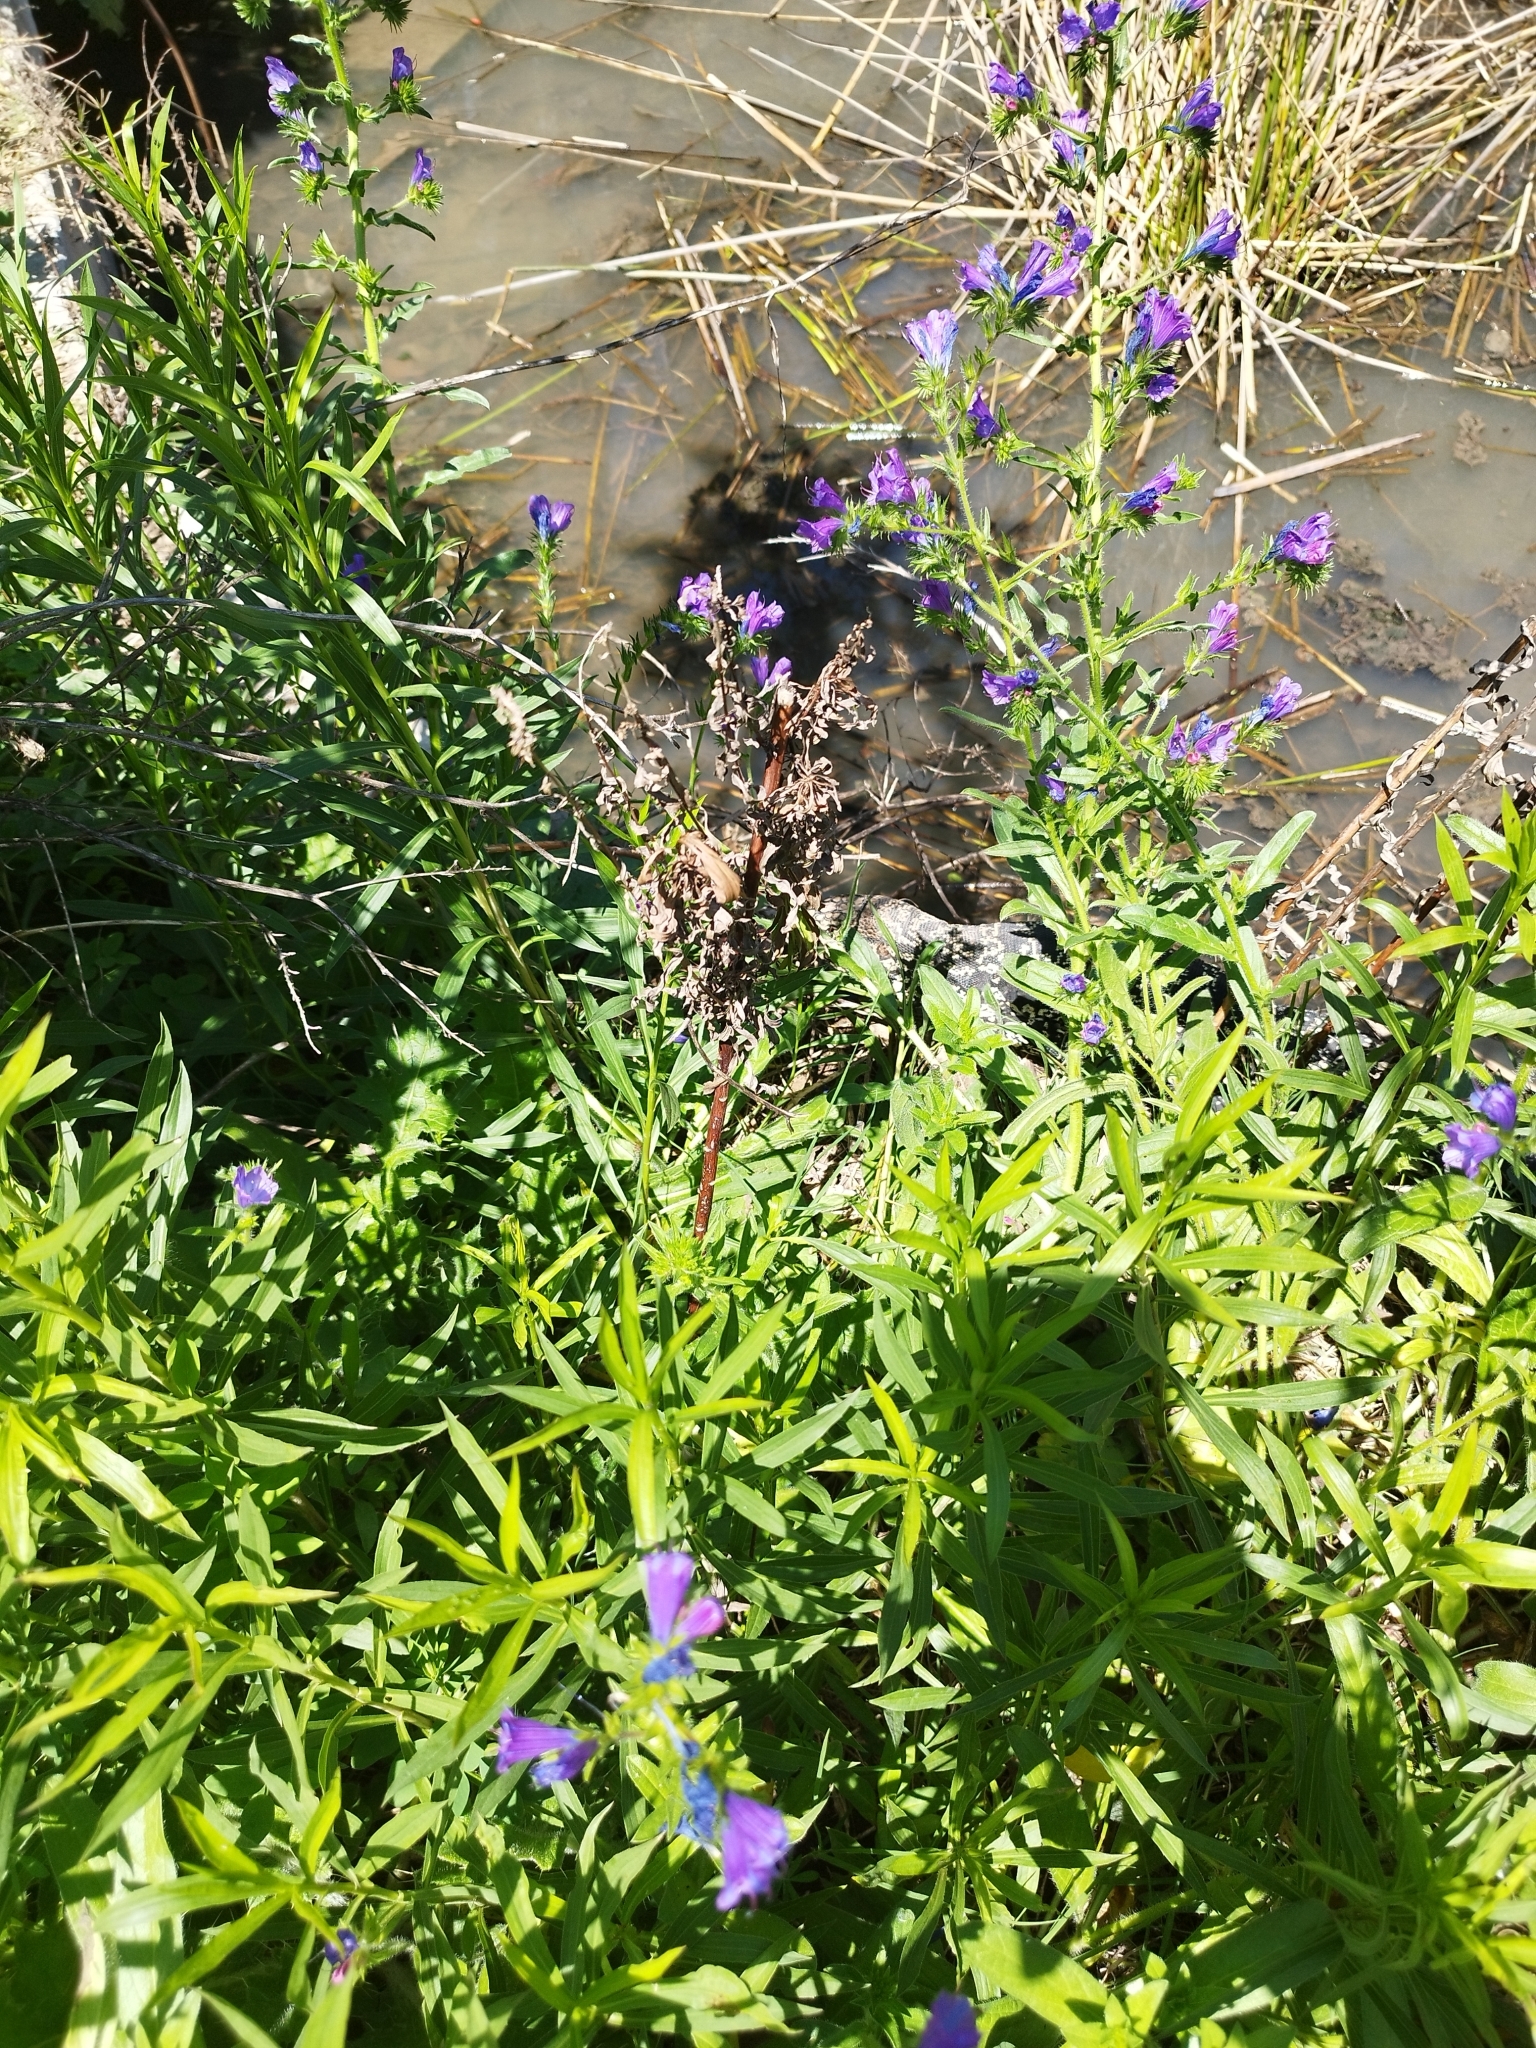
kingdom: Animalia
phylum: Chordata
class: Squamata
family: Teiidae
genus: Salvator
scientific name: Salvator merianae
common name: Argentine black and white tegu
